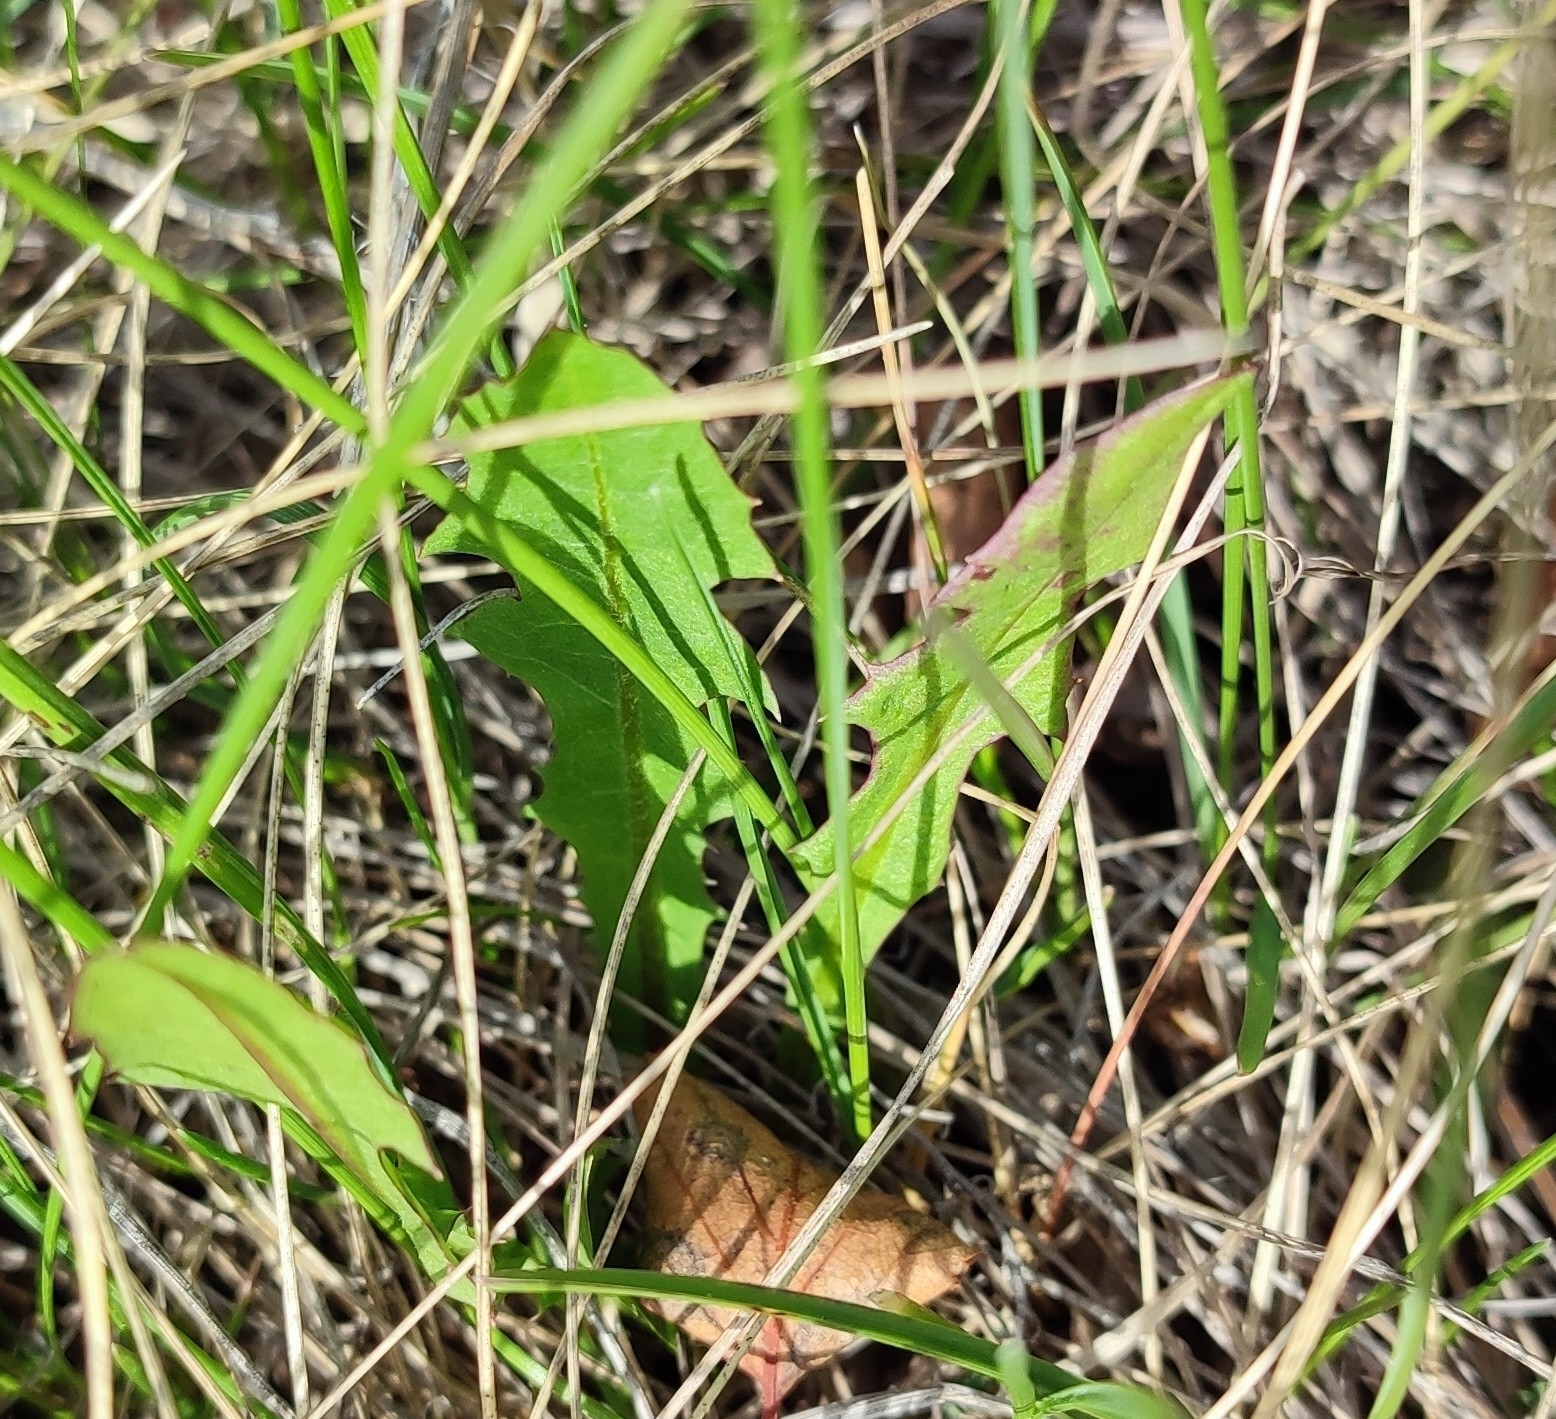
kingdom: Plantae
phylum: Tracheophyta
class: Magnoliopsida
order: Asterales
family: Asteraceae
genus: Taraxacum
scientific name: Taraxacum officinale
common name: Common dandelion
